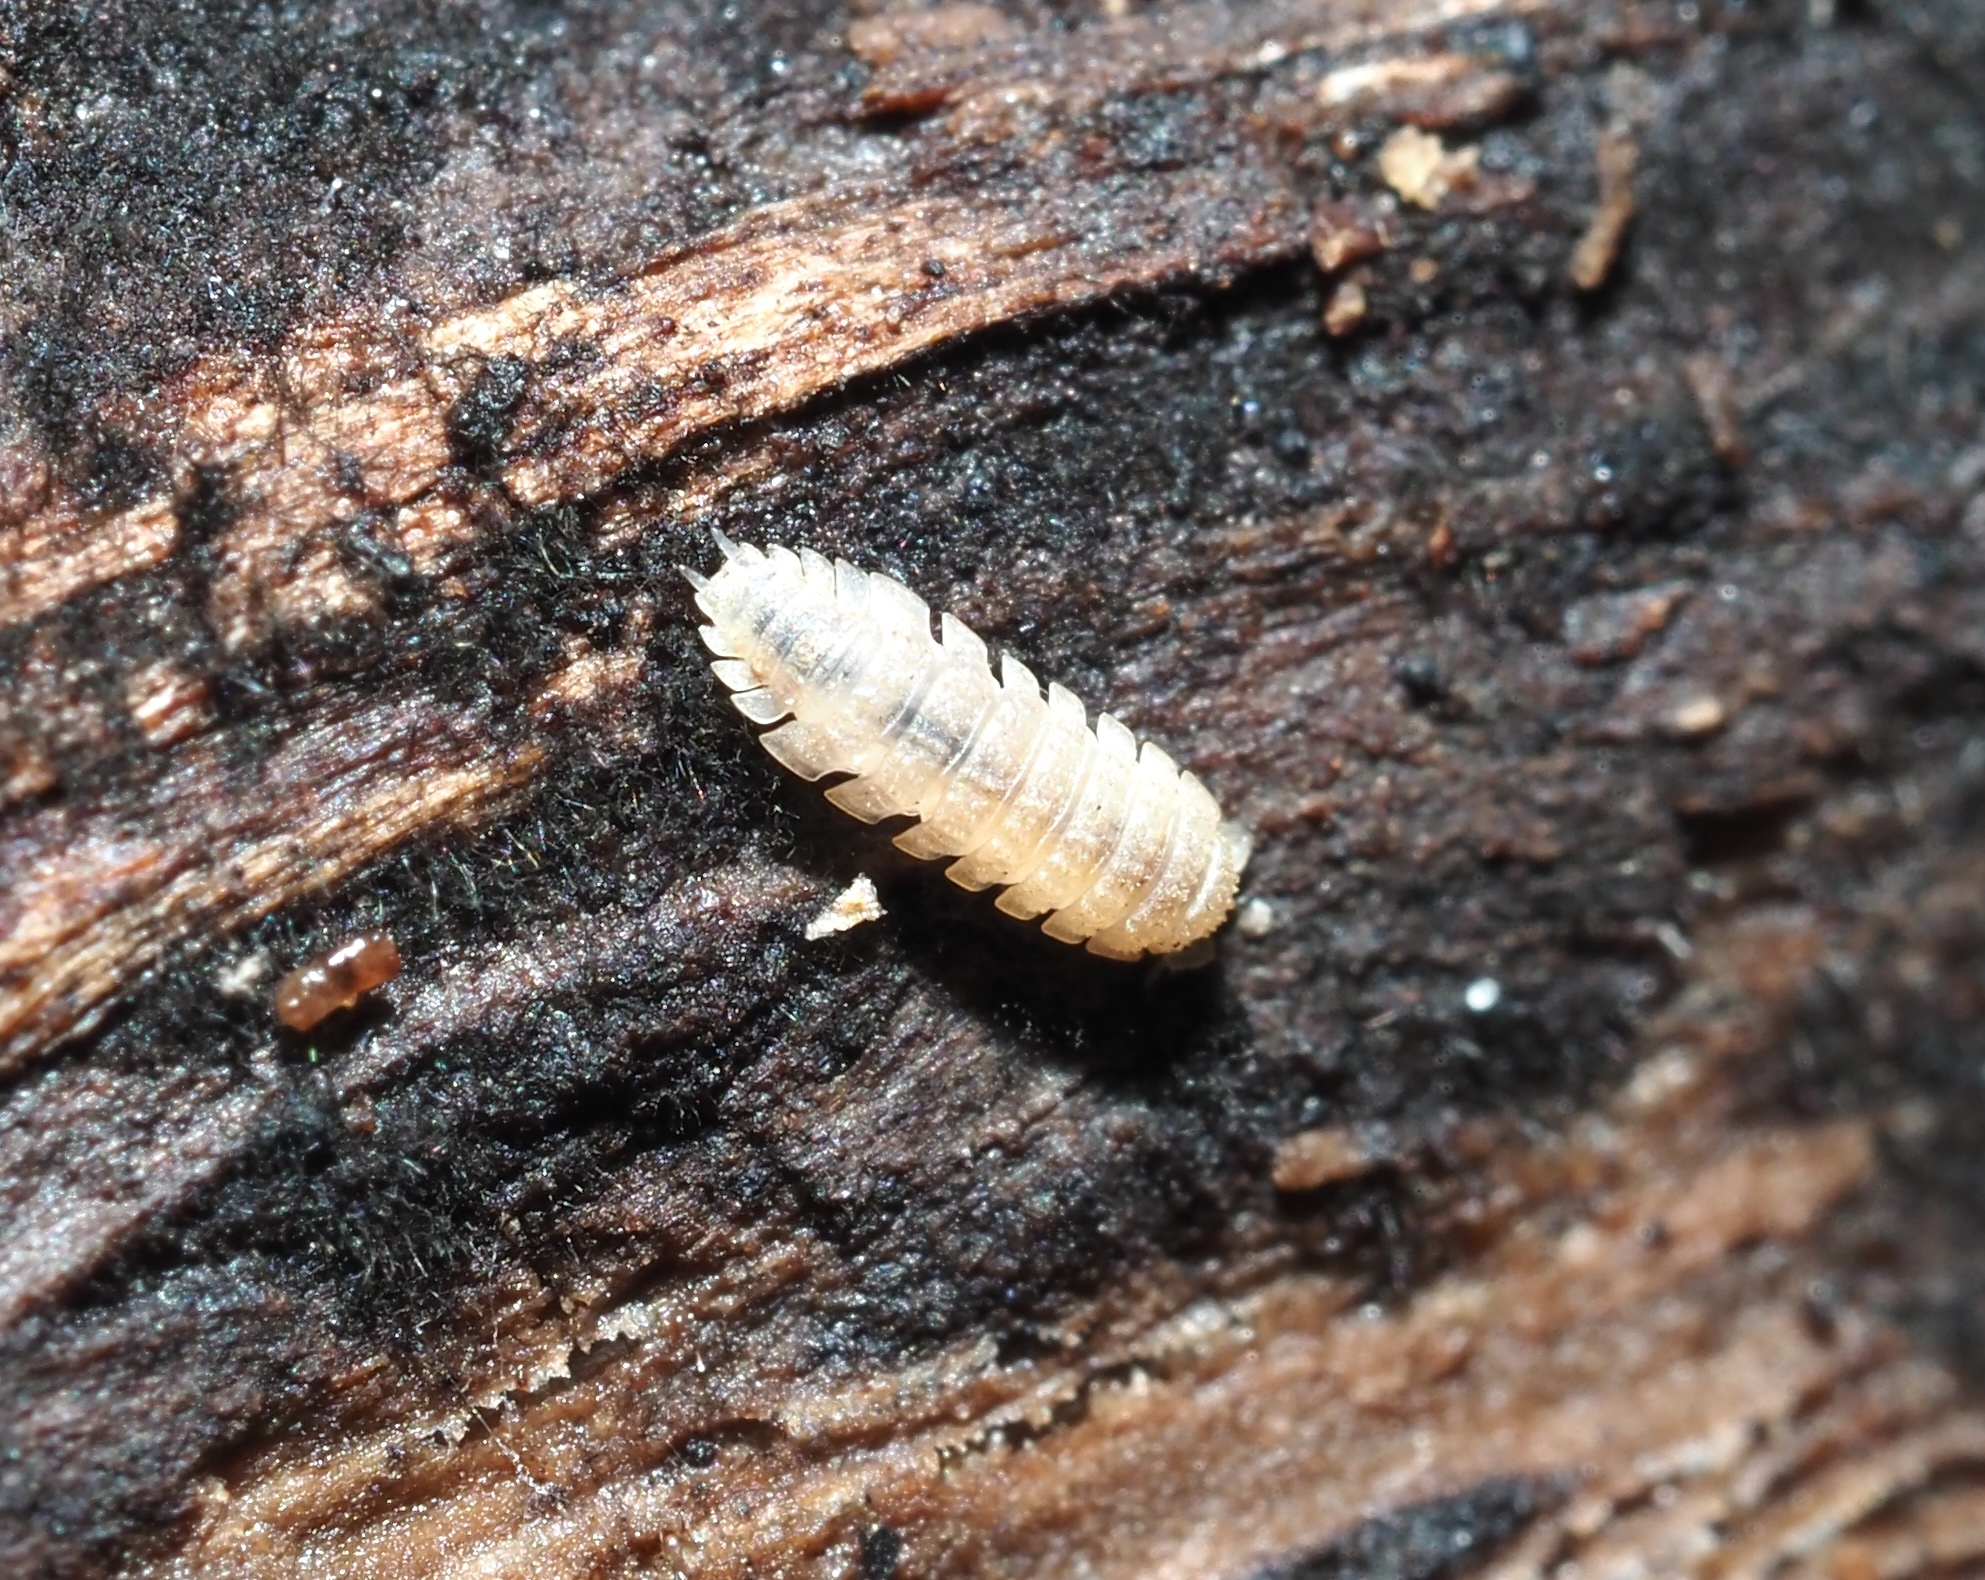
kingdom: Animalia
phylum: Arthropoda
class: Malacostraca
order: Isopoda
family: Trichoniscidae
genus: Haplophthalmus
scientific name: Haplophthalmus danicus
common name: Pillbug
